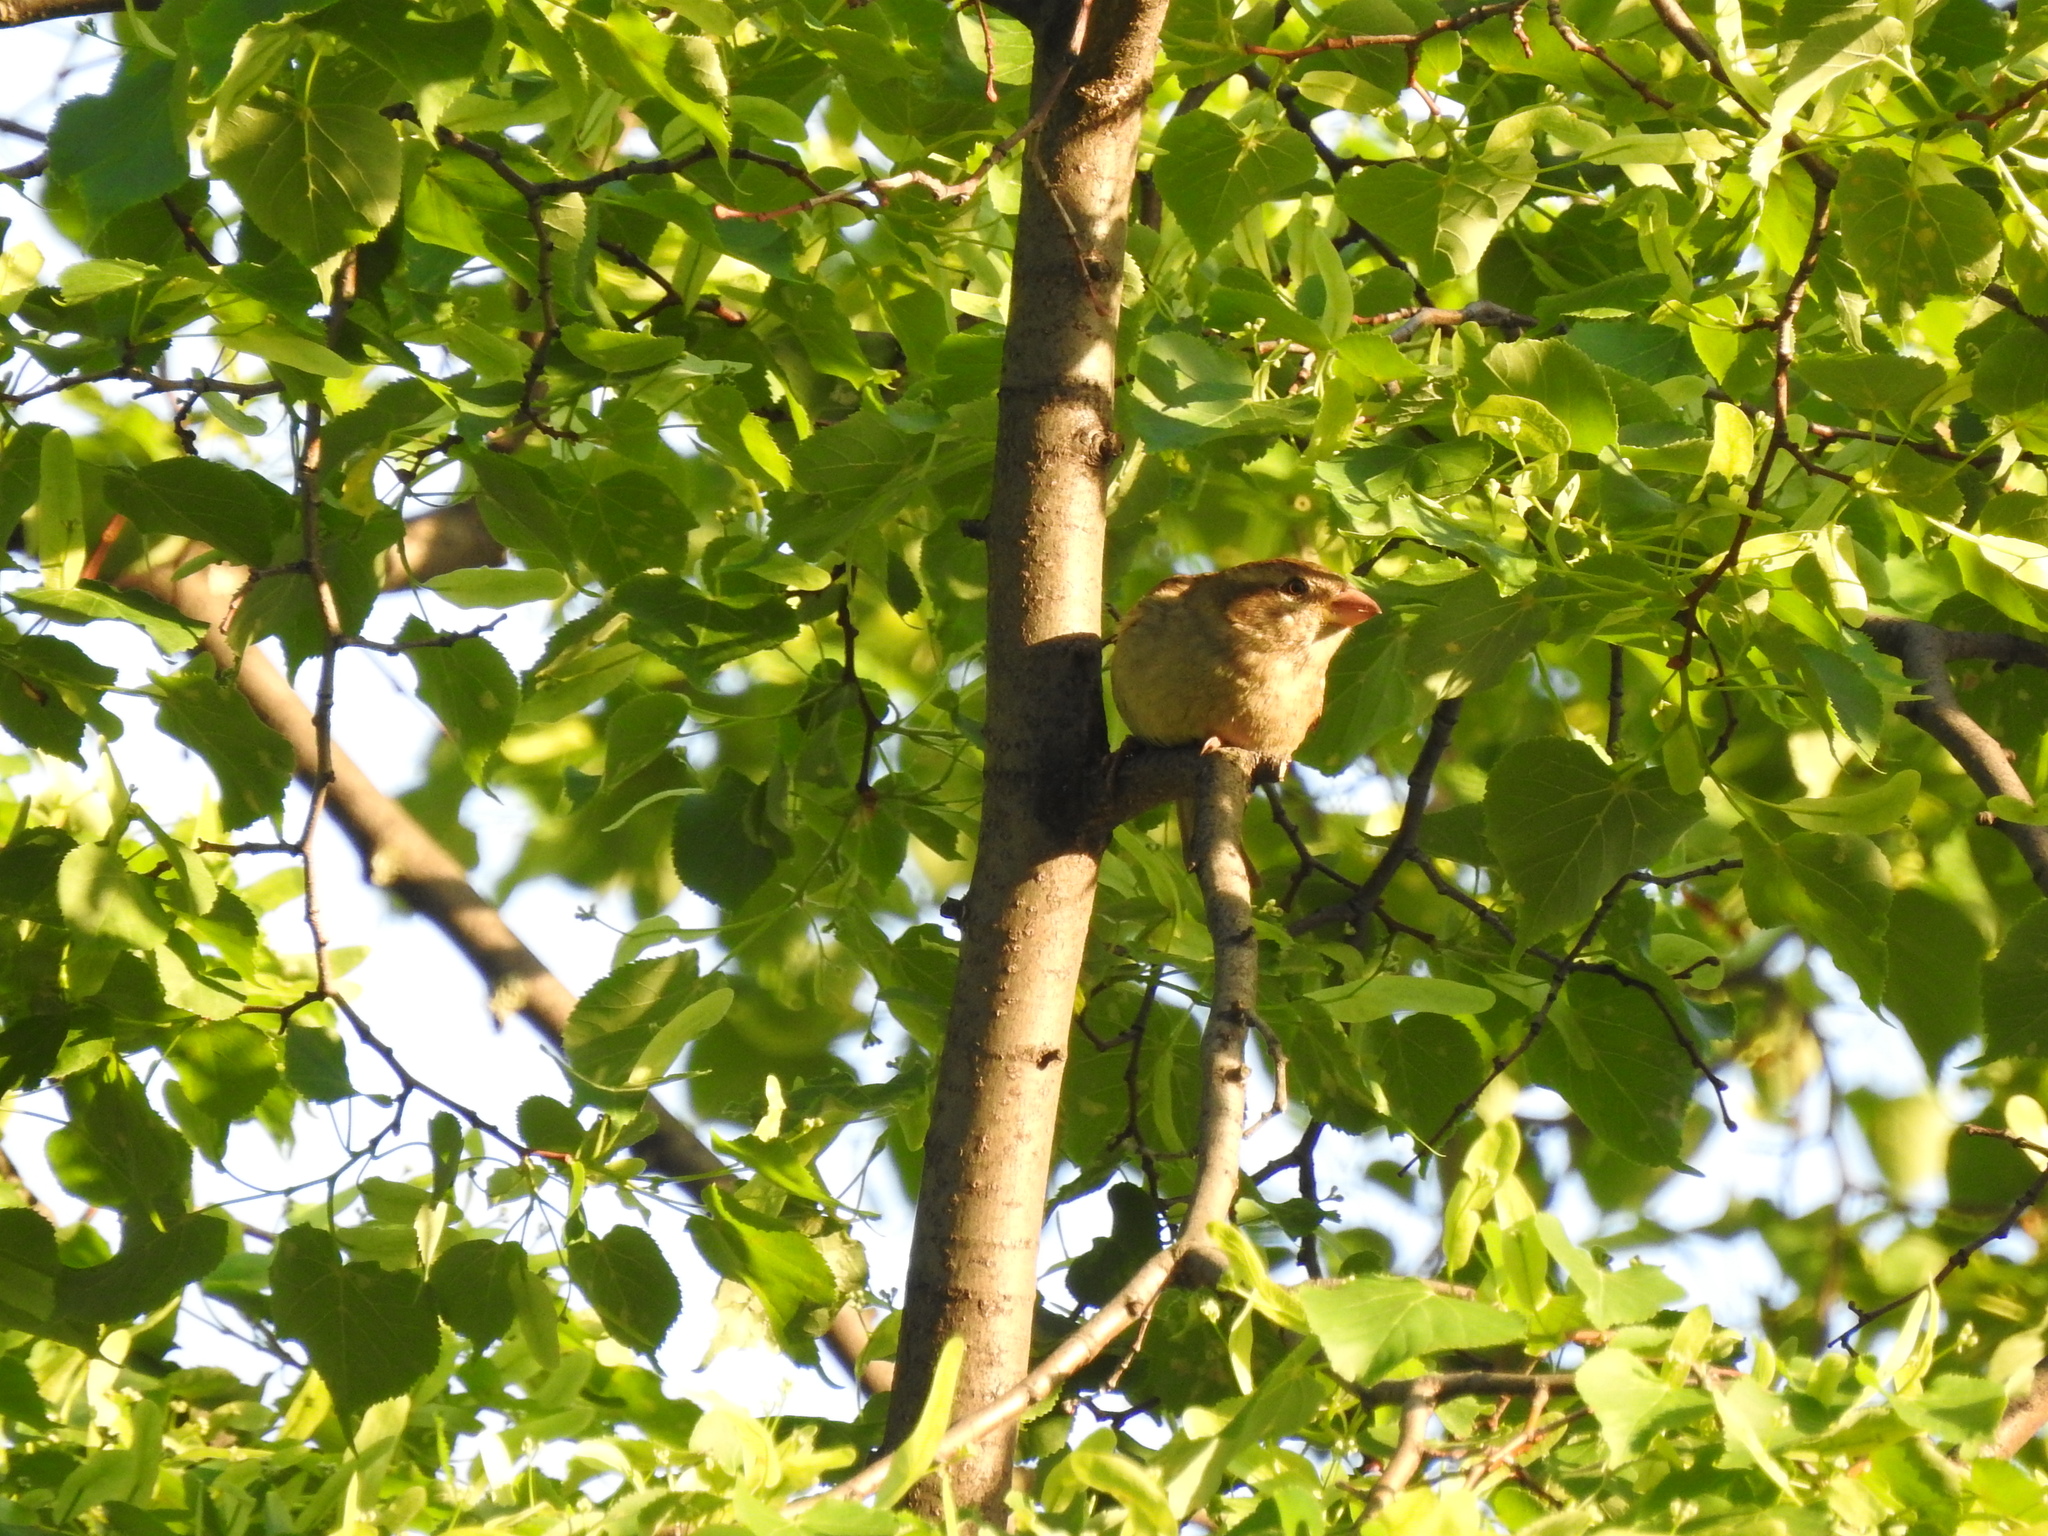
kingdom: Animalia
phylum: Chordata
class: Aves
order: Passeriformes
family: Passeridae
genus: Passer
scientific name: Passer domesticus
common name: House sparrow
